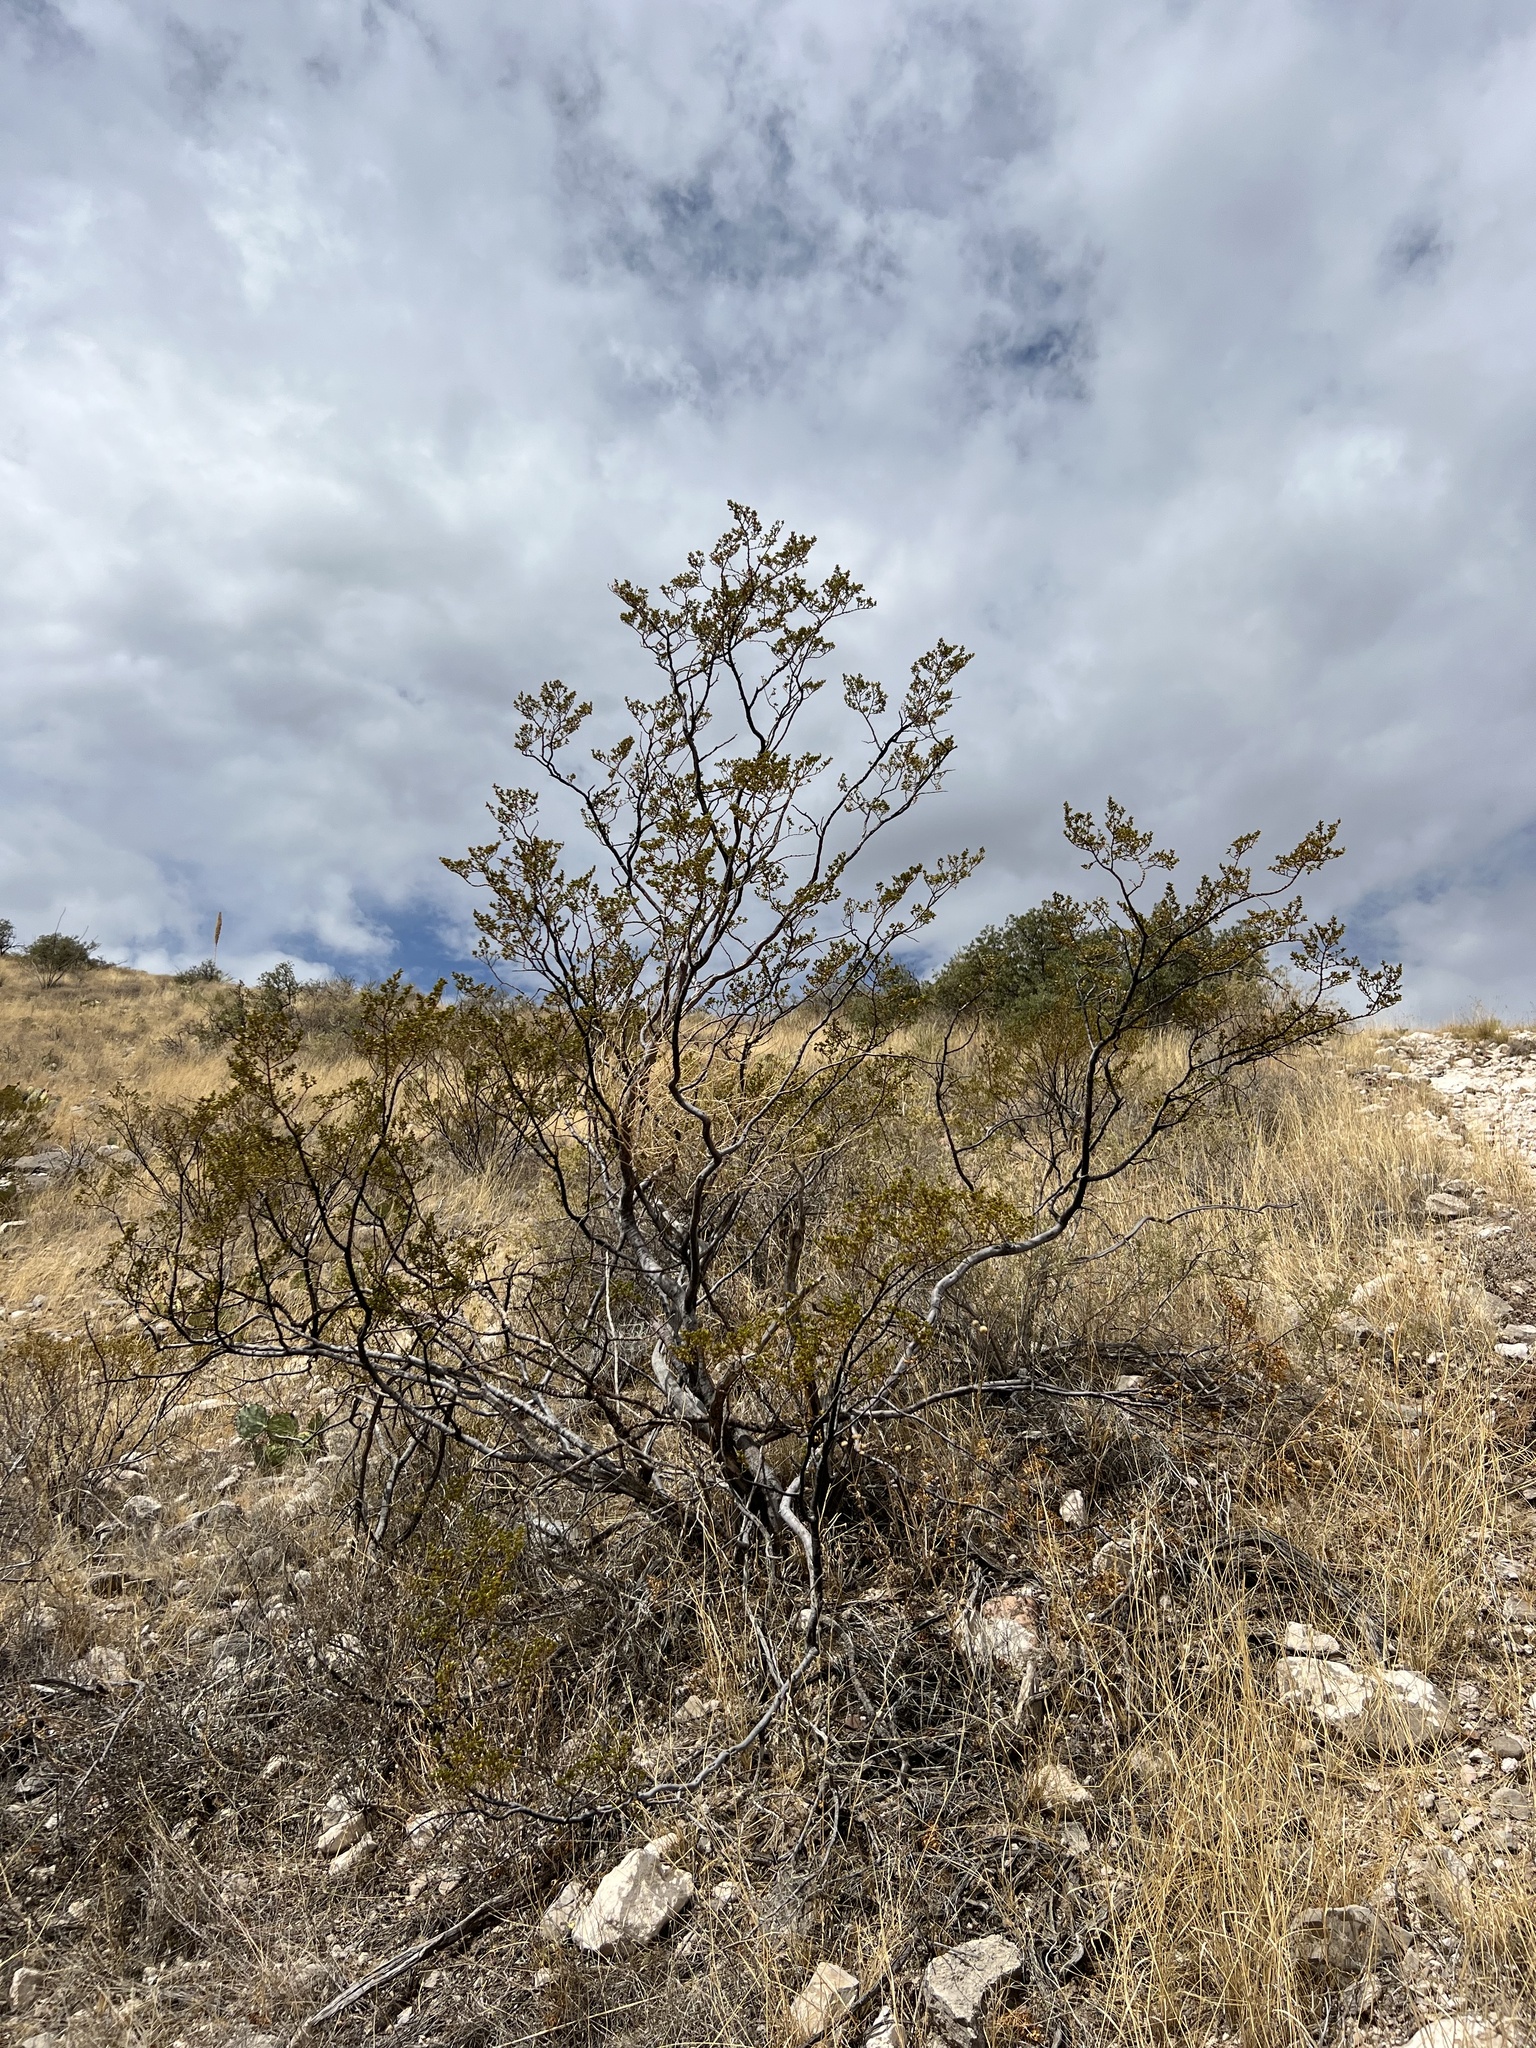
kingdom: Plantae
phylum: Tracheophyta
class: Magnoliopsida
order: Zygophyllales
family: Zygophyllaceae
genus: Larrea
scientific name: Larrea tridentata
